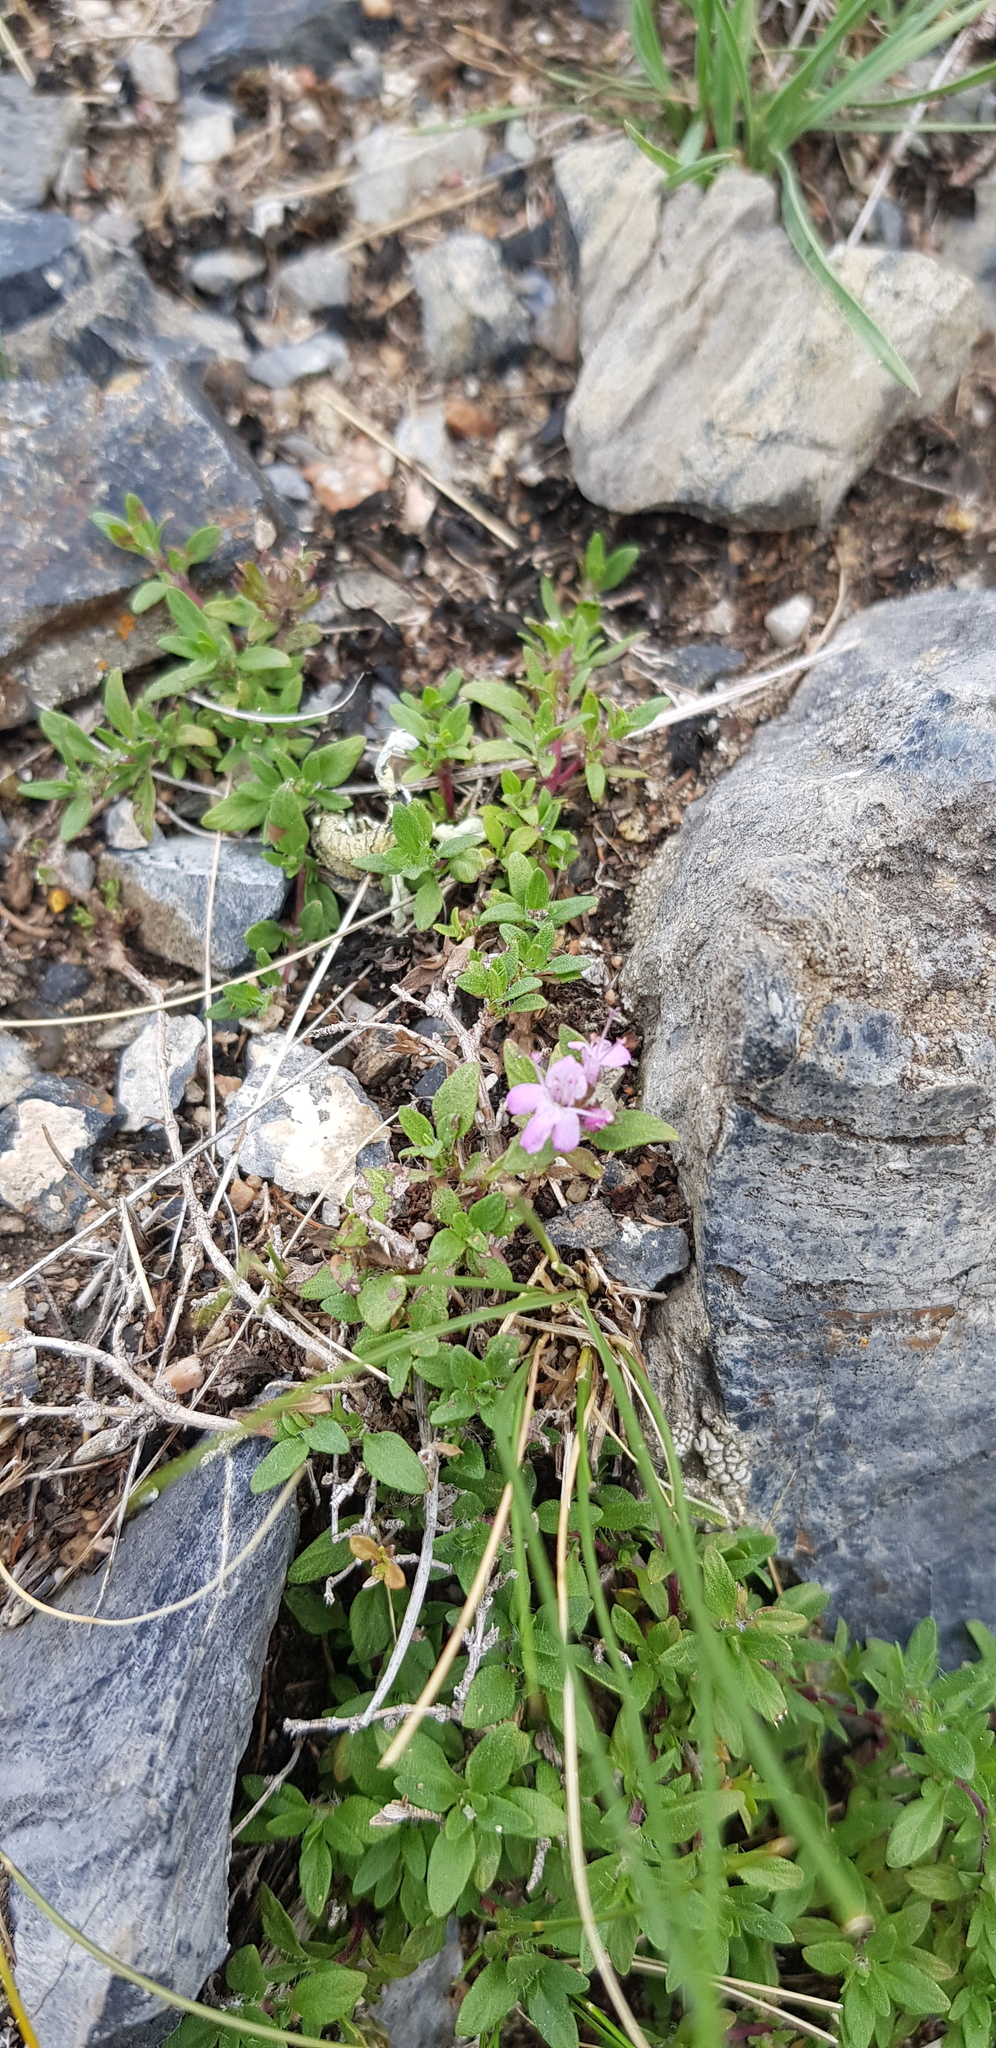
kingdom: Plantae
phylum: Tracheophyta
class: Magnoliopsida
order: Lamiales
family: Lamiaceae
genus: Thymus
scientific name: Thymus baicalensis
